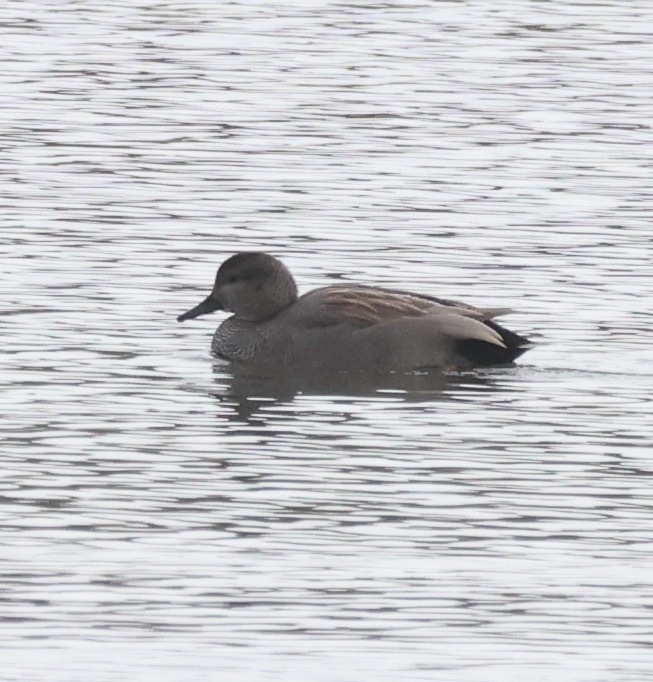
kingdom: Animalia
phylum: Chordata
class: Aves
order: Anseriformes
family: Anatidae
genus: Mareca
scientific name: Mareca strepera
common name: Gadwall
